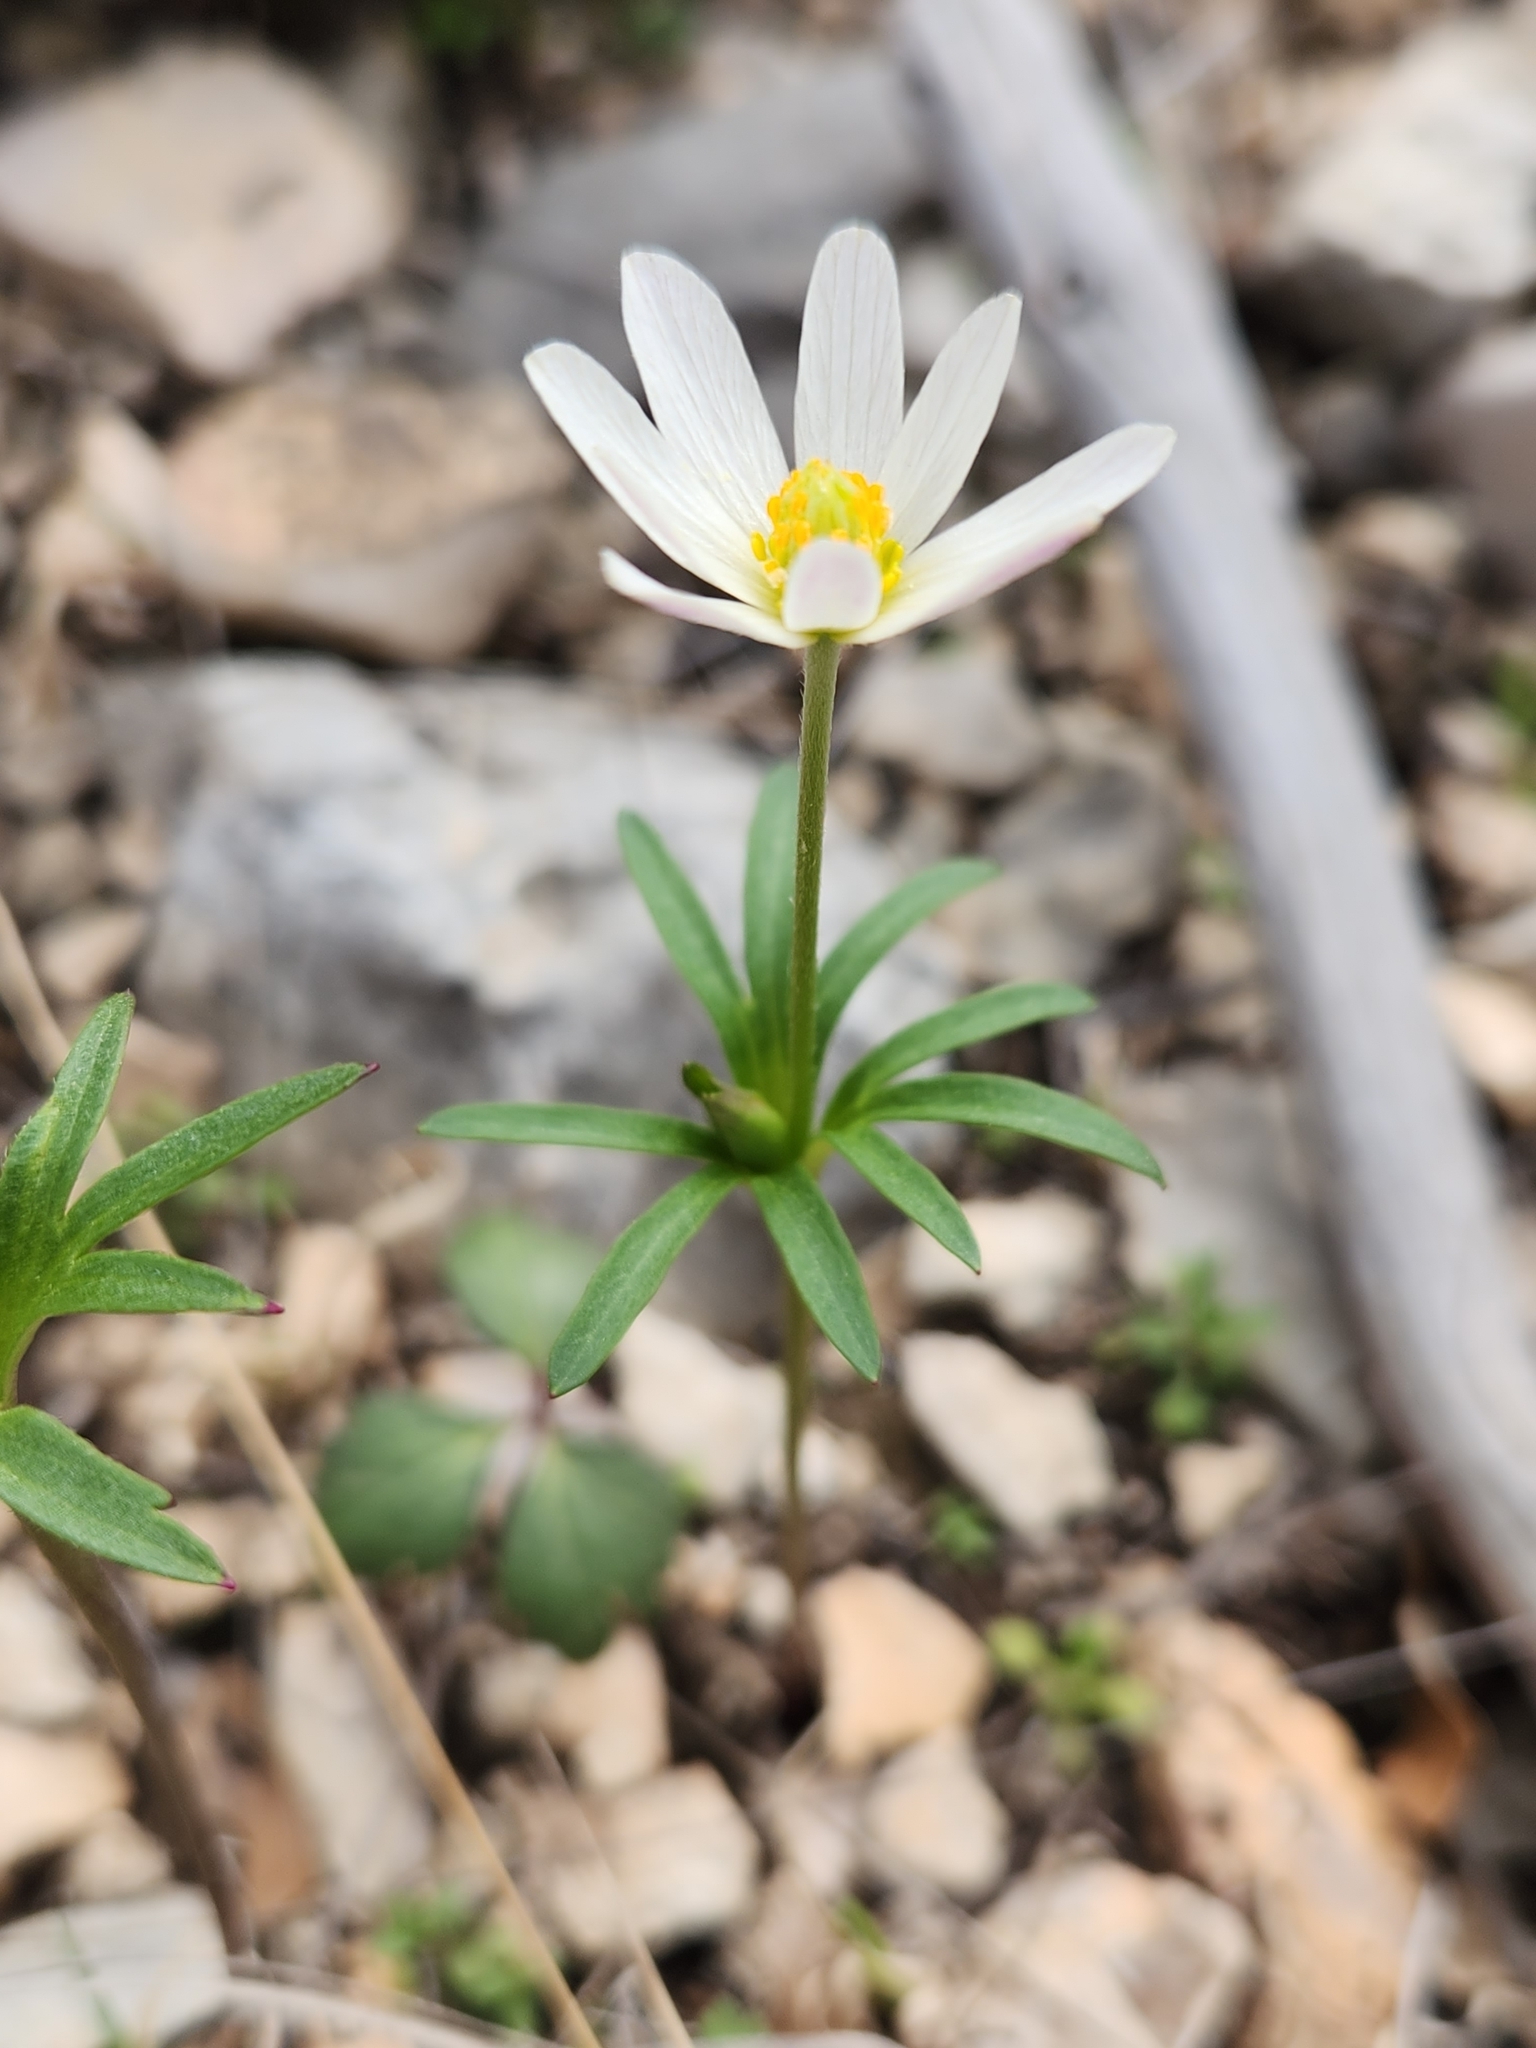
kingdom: Plantae
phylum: Tracheophyta
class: Magnoliopsida
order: Ranunculales
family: Ranunculaceae
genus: Anemone
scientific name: Anemone edwardsiana
